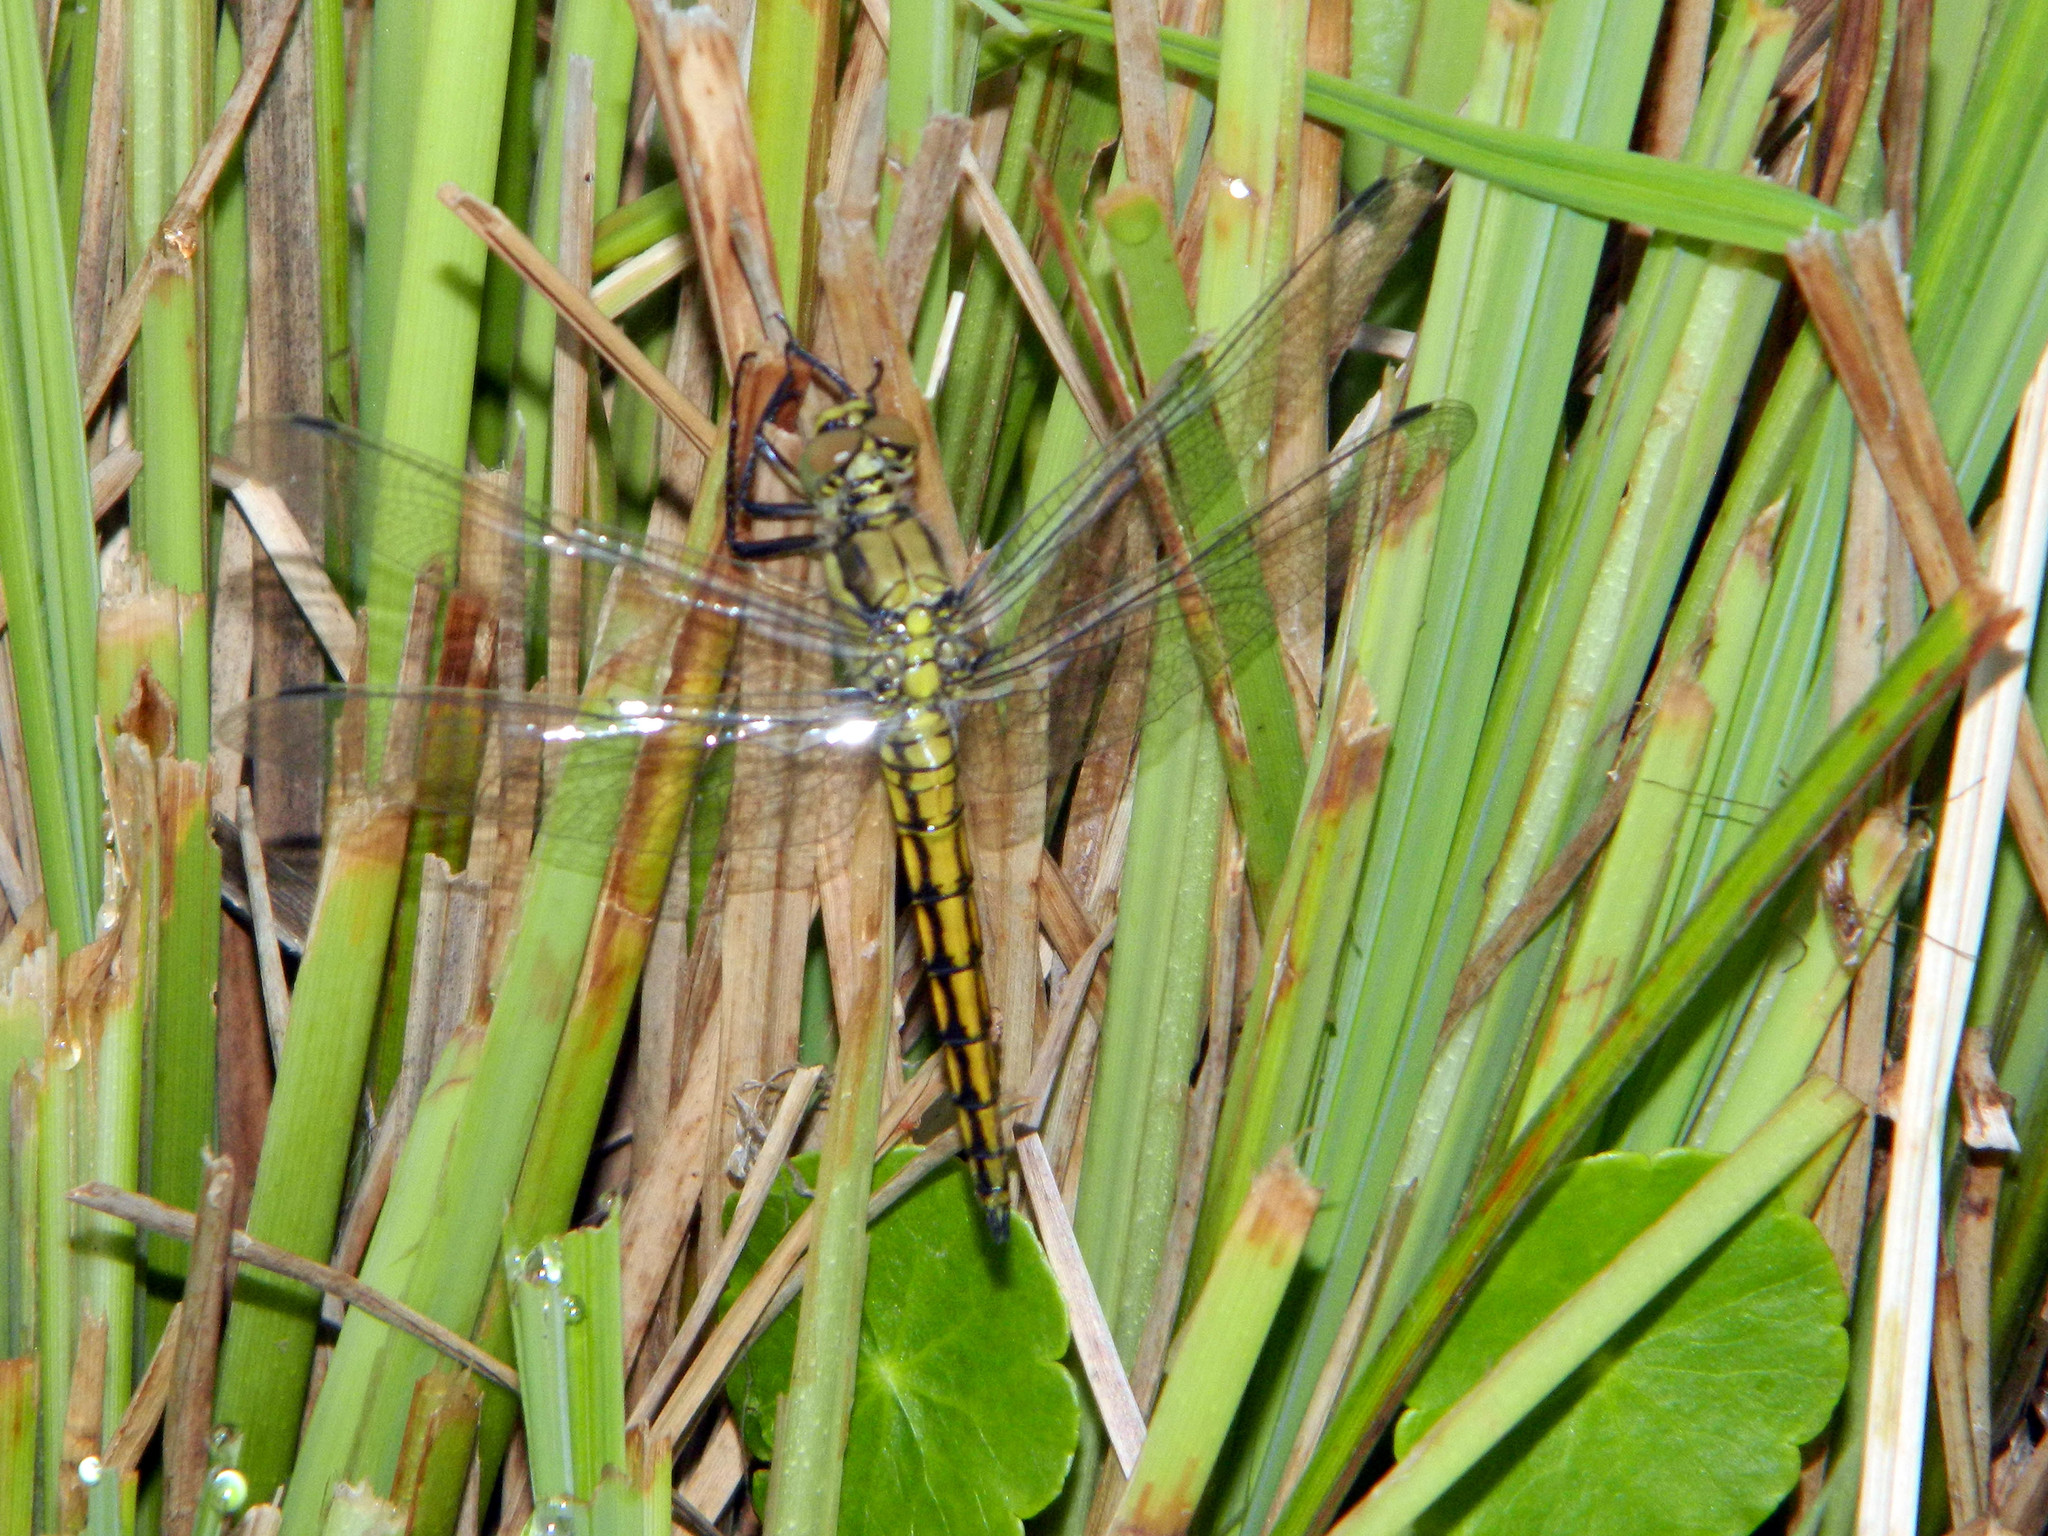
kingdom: Animalia
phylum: Arthropoda
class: Insecta
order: Odonata
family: Libellulidae
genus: Orthetrum
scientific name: Orthetrum cancellatum
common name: Black-tailed skimmer
